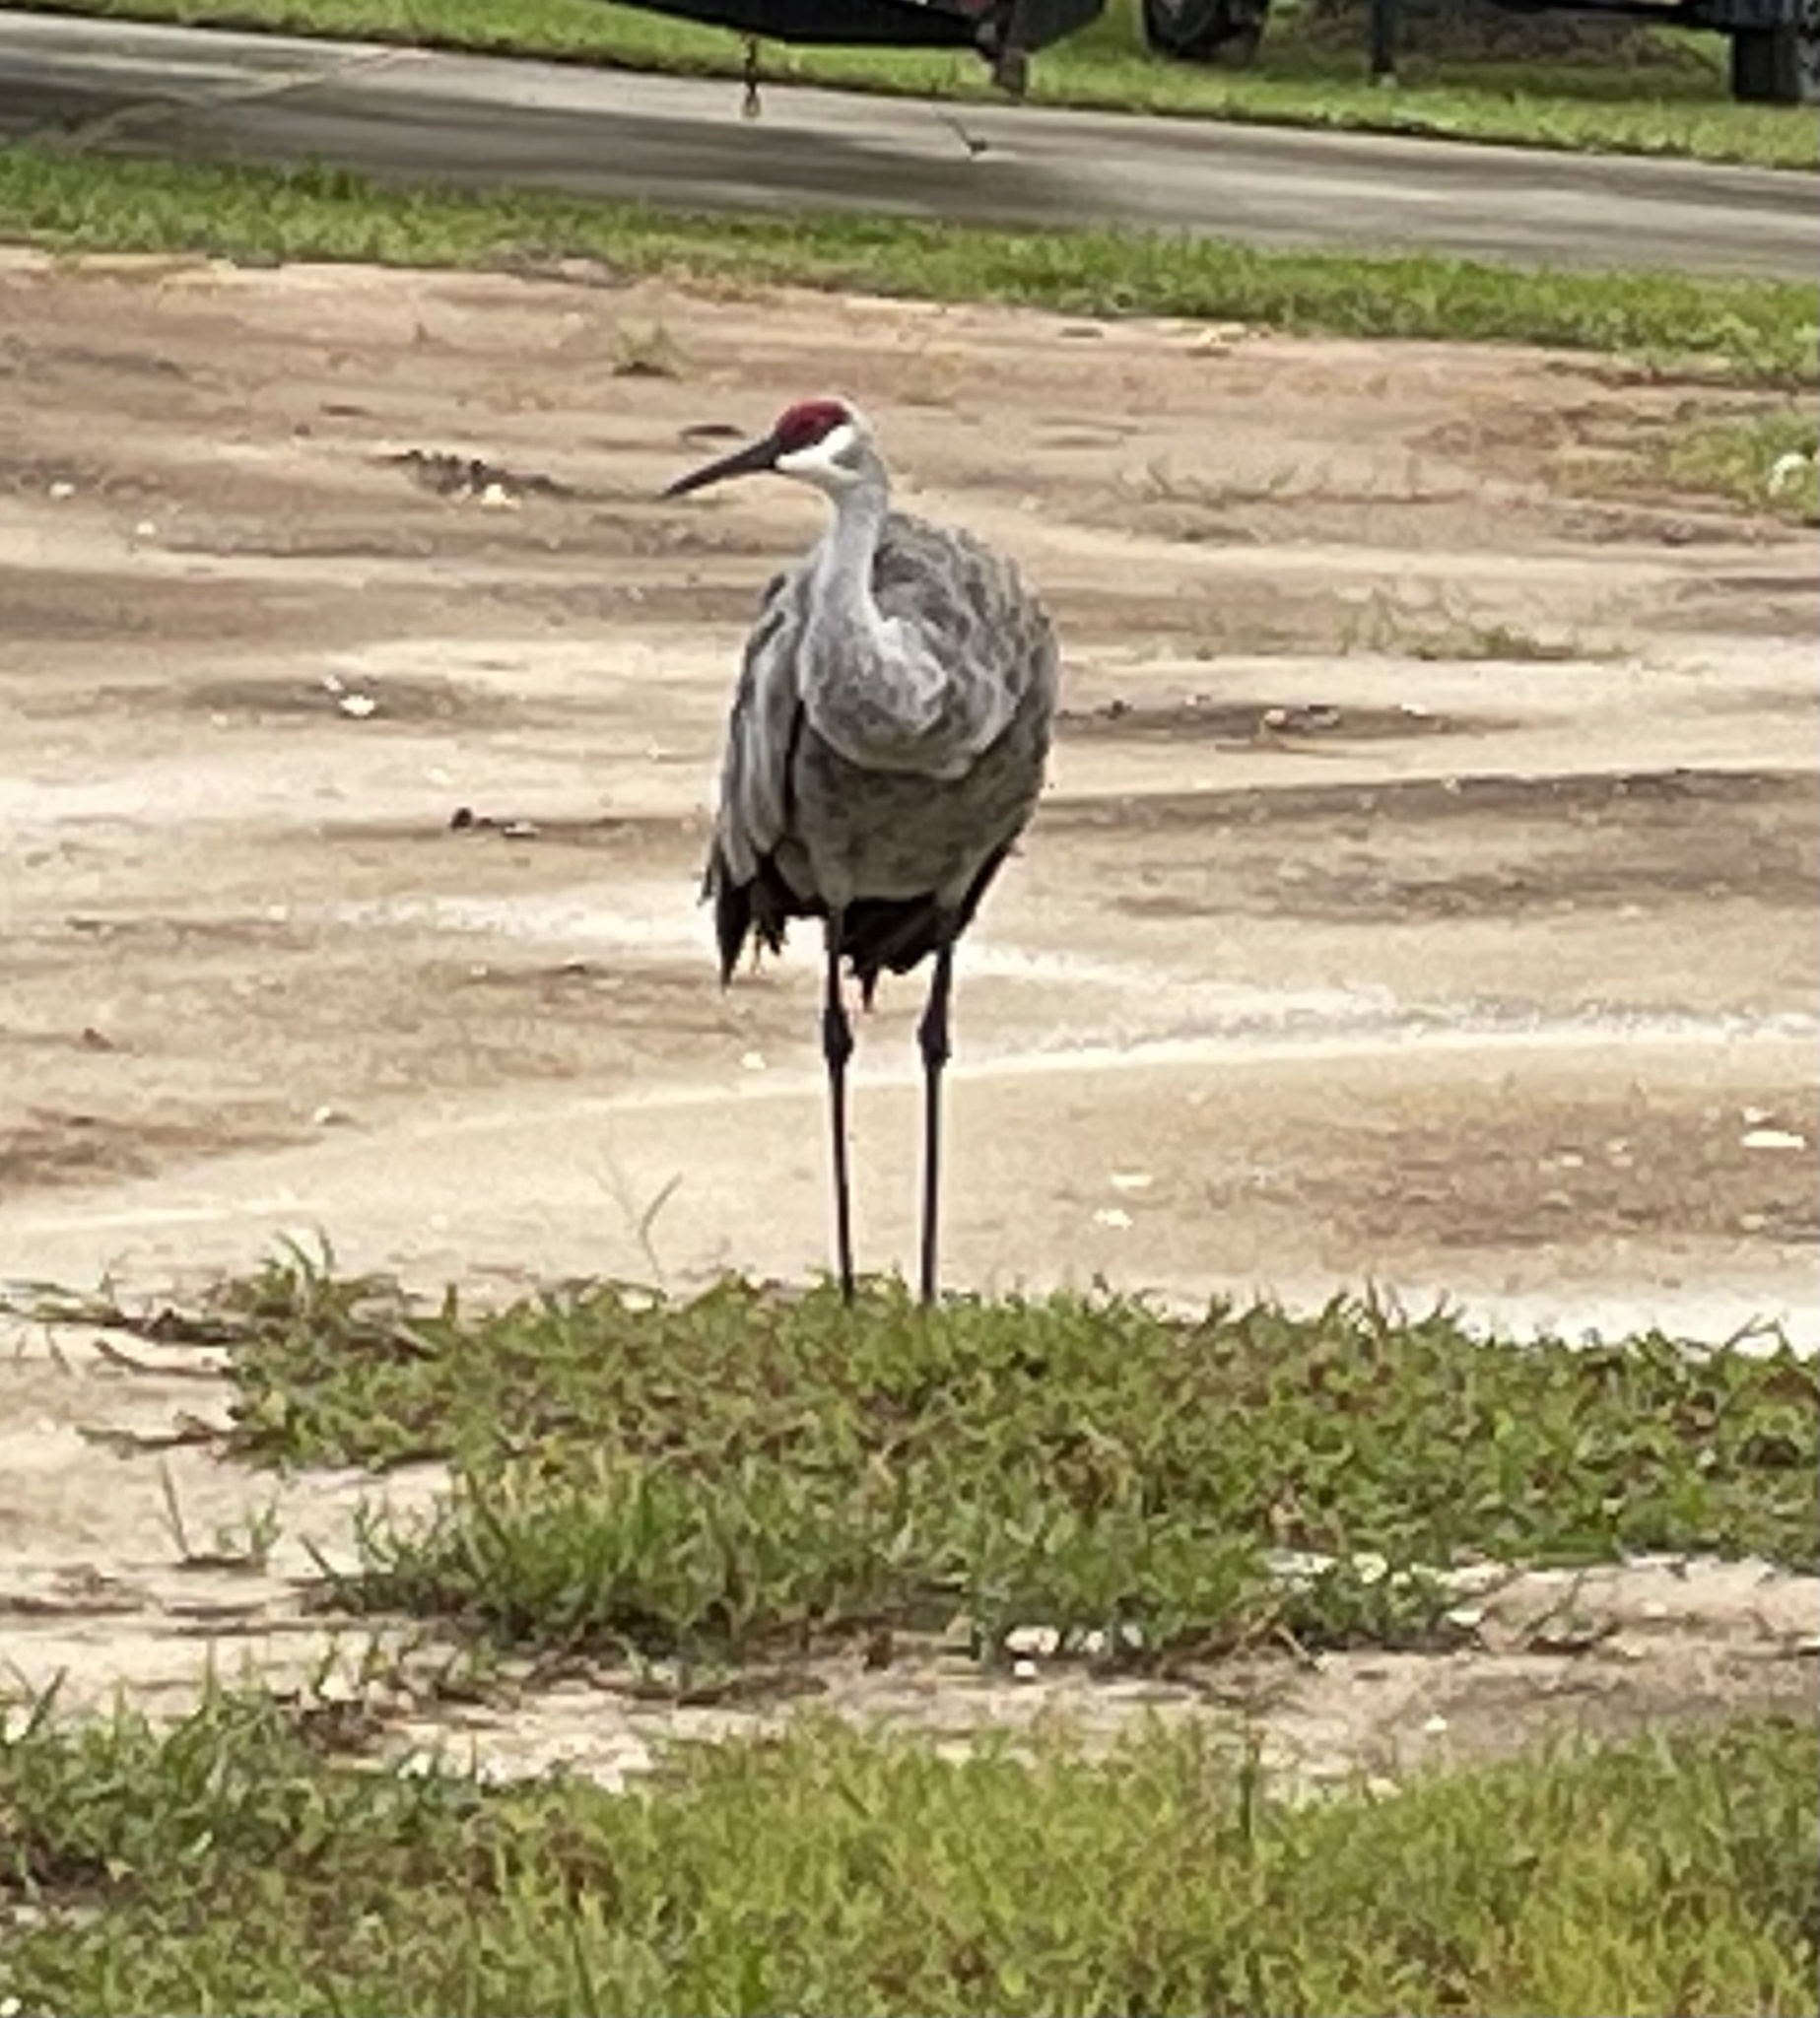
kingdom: Animalia
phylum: Chordata
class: Aves
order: Gruiformes
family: Gruidae
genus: Grus
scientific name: Grus canadensis
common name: Sandhill crane
